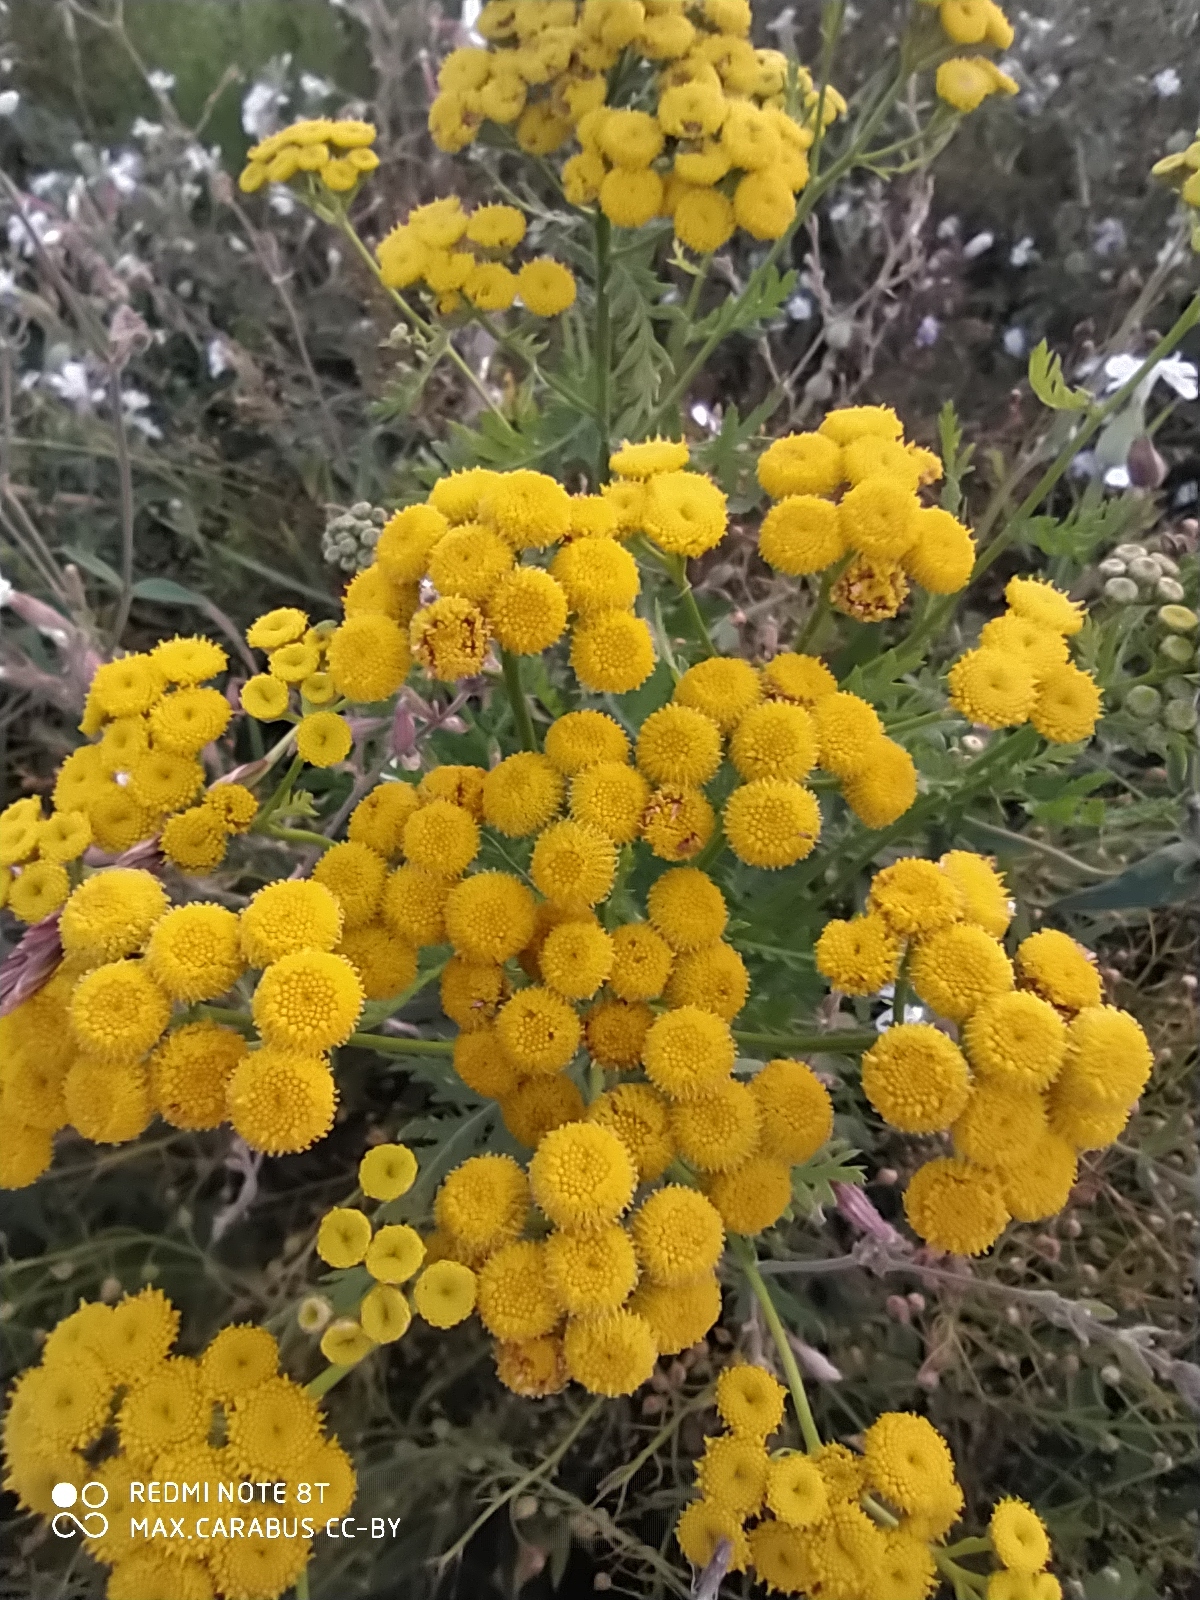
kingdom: Plantae
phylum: Tracheophyta
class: Magnoliopsida
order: Asterales
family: Asteraceae
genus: Tanacetum
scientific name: Tanacetum vulgare
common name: Common tansy
